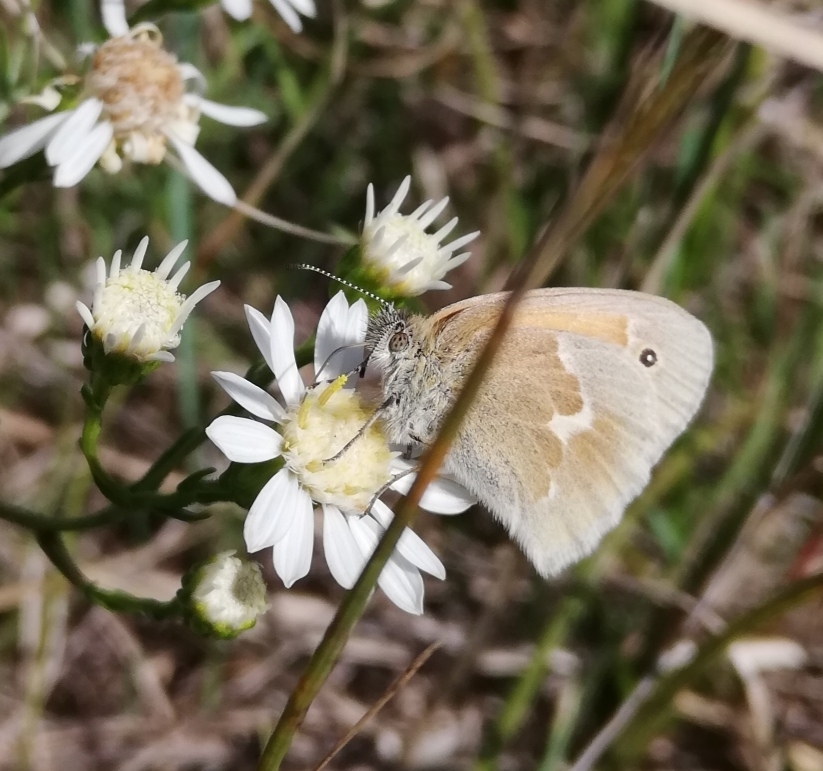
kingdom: Animalia
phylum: Arthropoda
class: Insecta
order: Lepidoptera
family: Nymphalidae
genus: Coenonympha
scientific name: Coenonympha california
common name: Common ringlet
